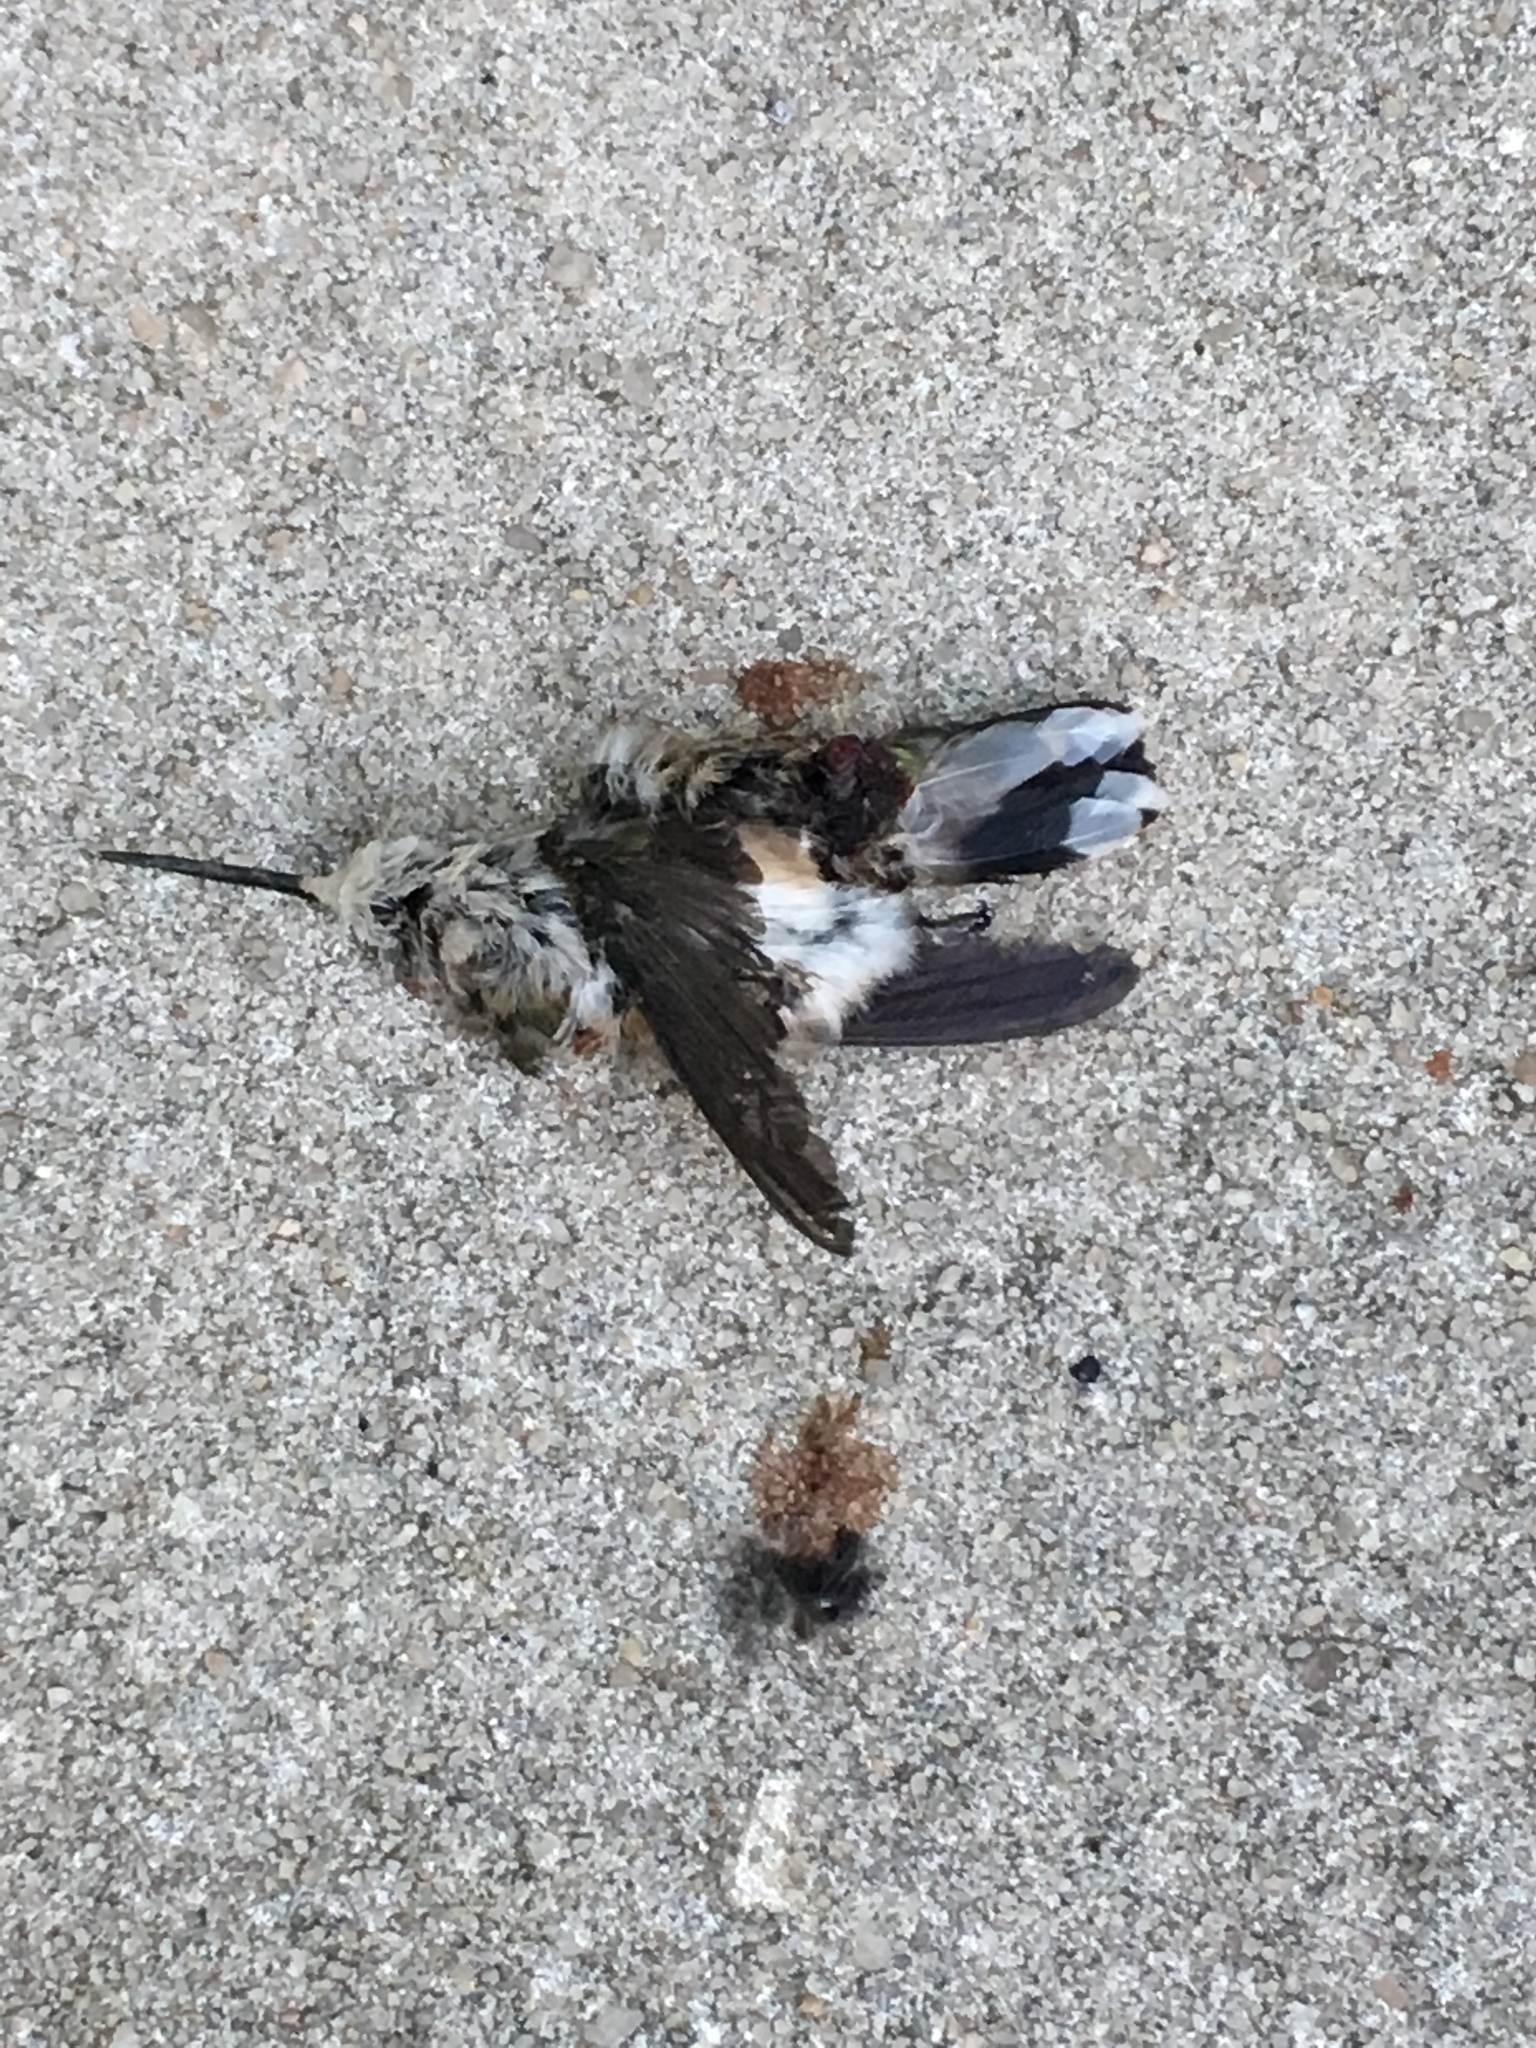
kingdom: Animalia
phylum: Chordata
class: Aves
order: Apodiformes
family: Trochilidae
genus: Archilochus
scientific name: Archilochus colubris
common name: Ruby-throated hummingbird
